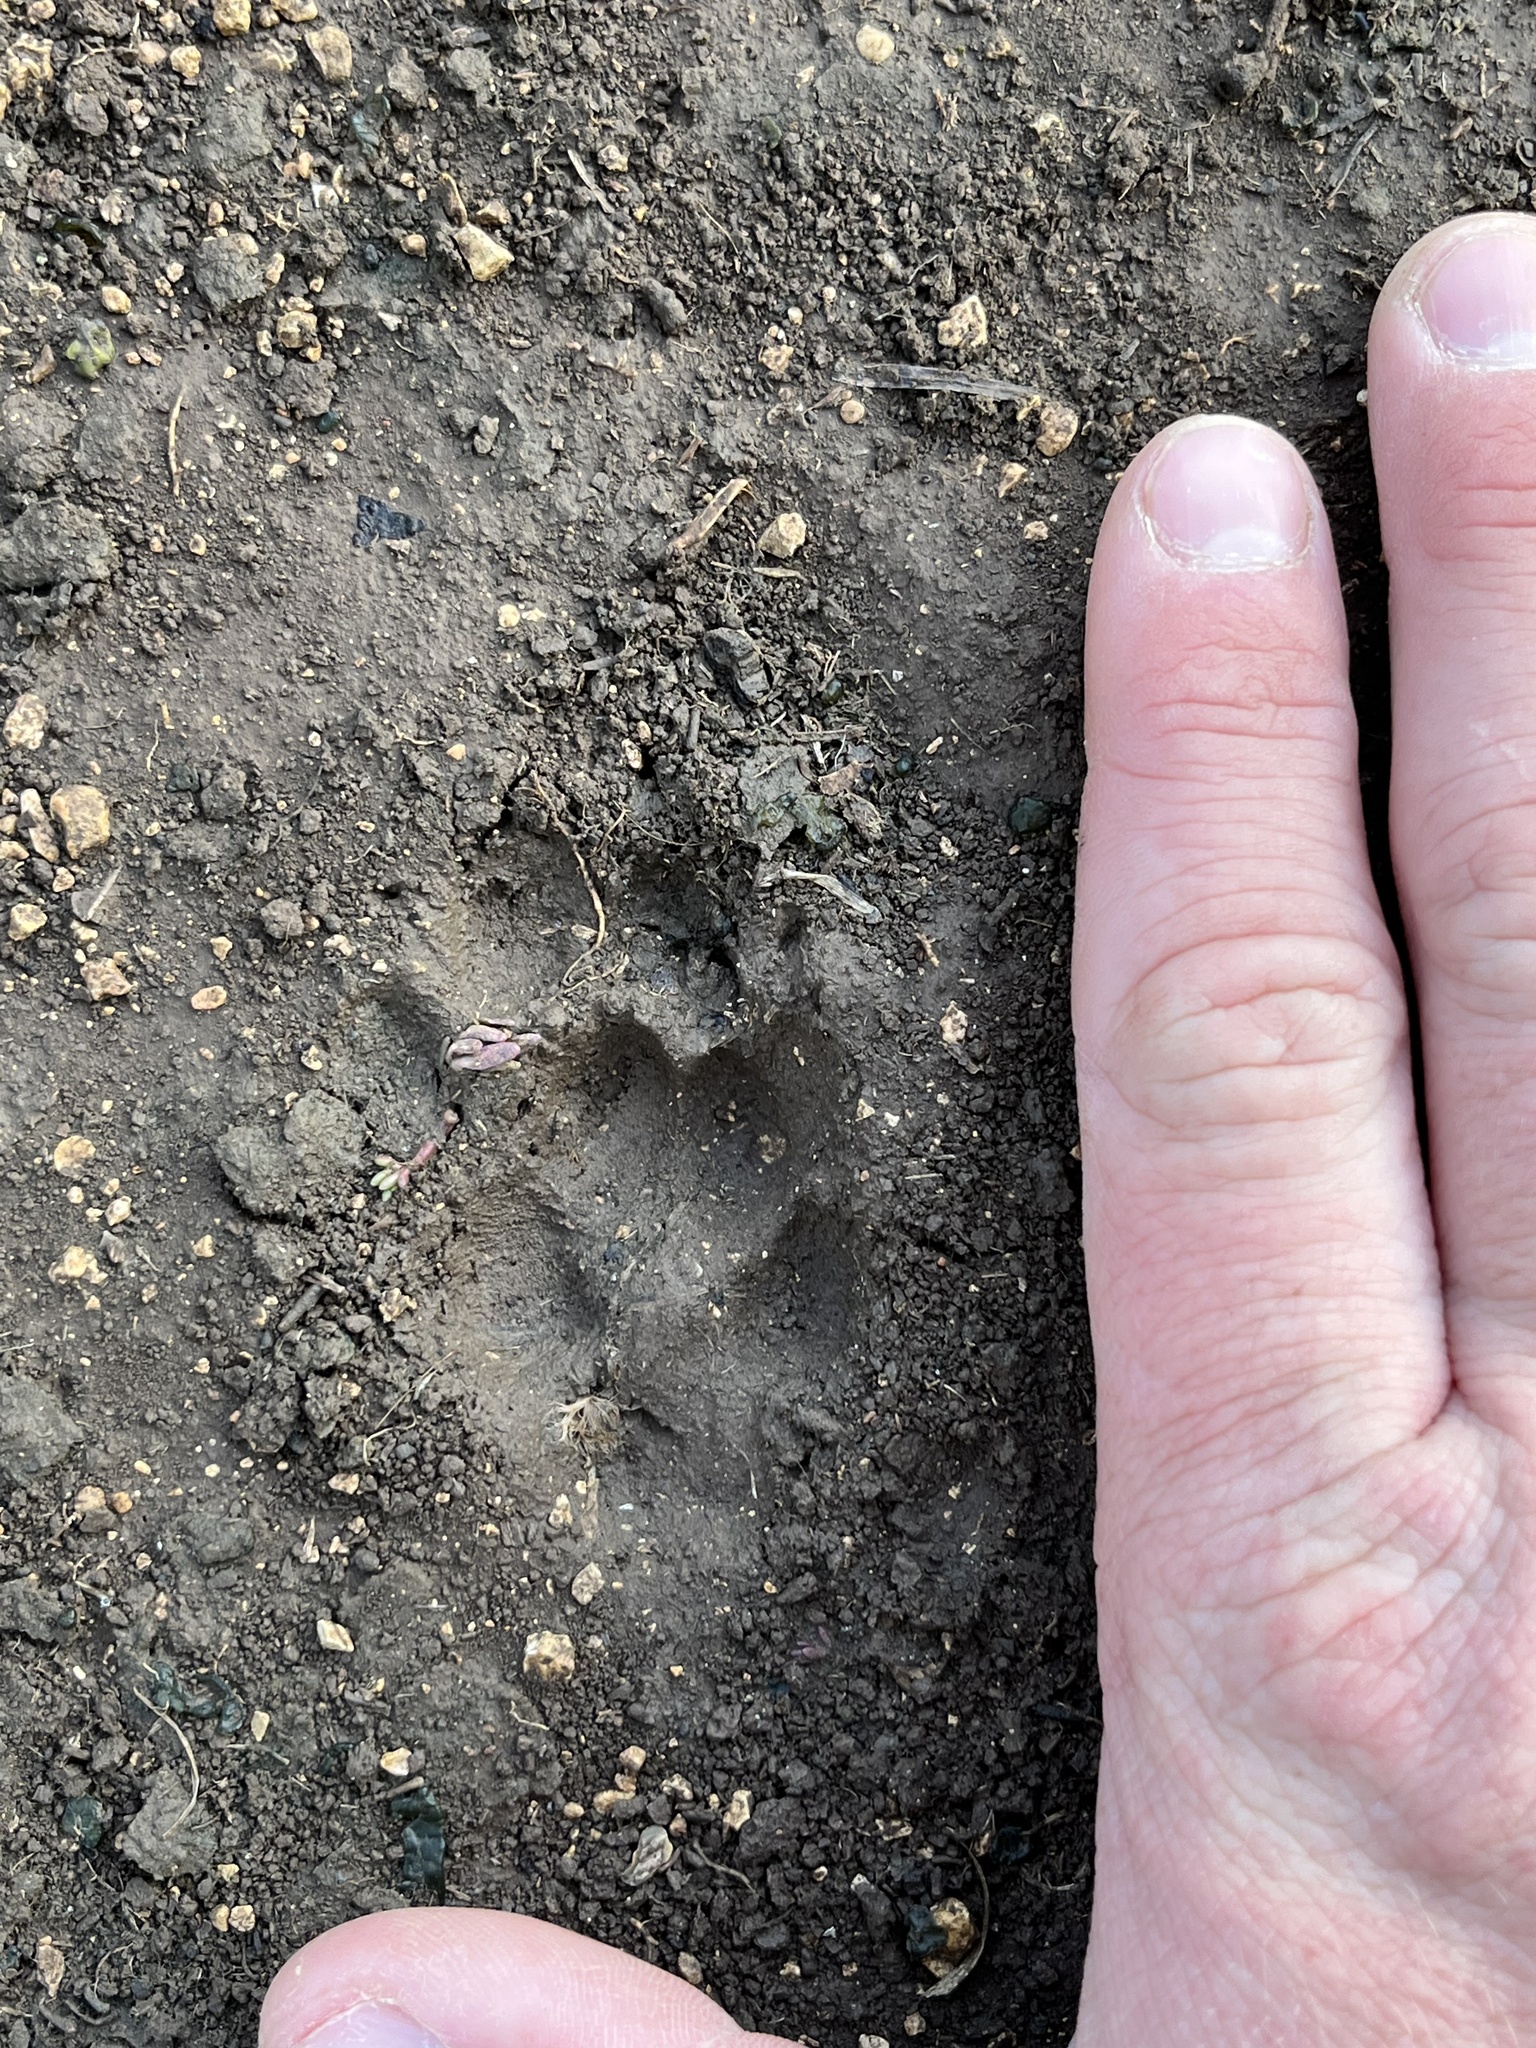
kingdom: Animalia
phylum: Chordata
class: Mammalia
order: Carnivora
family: Canidae
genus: Urocyon
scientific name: Urocyon cinereoargenteus
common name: Gray fox
